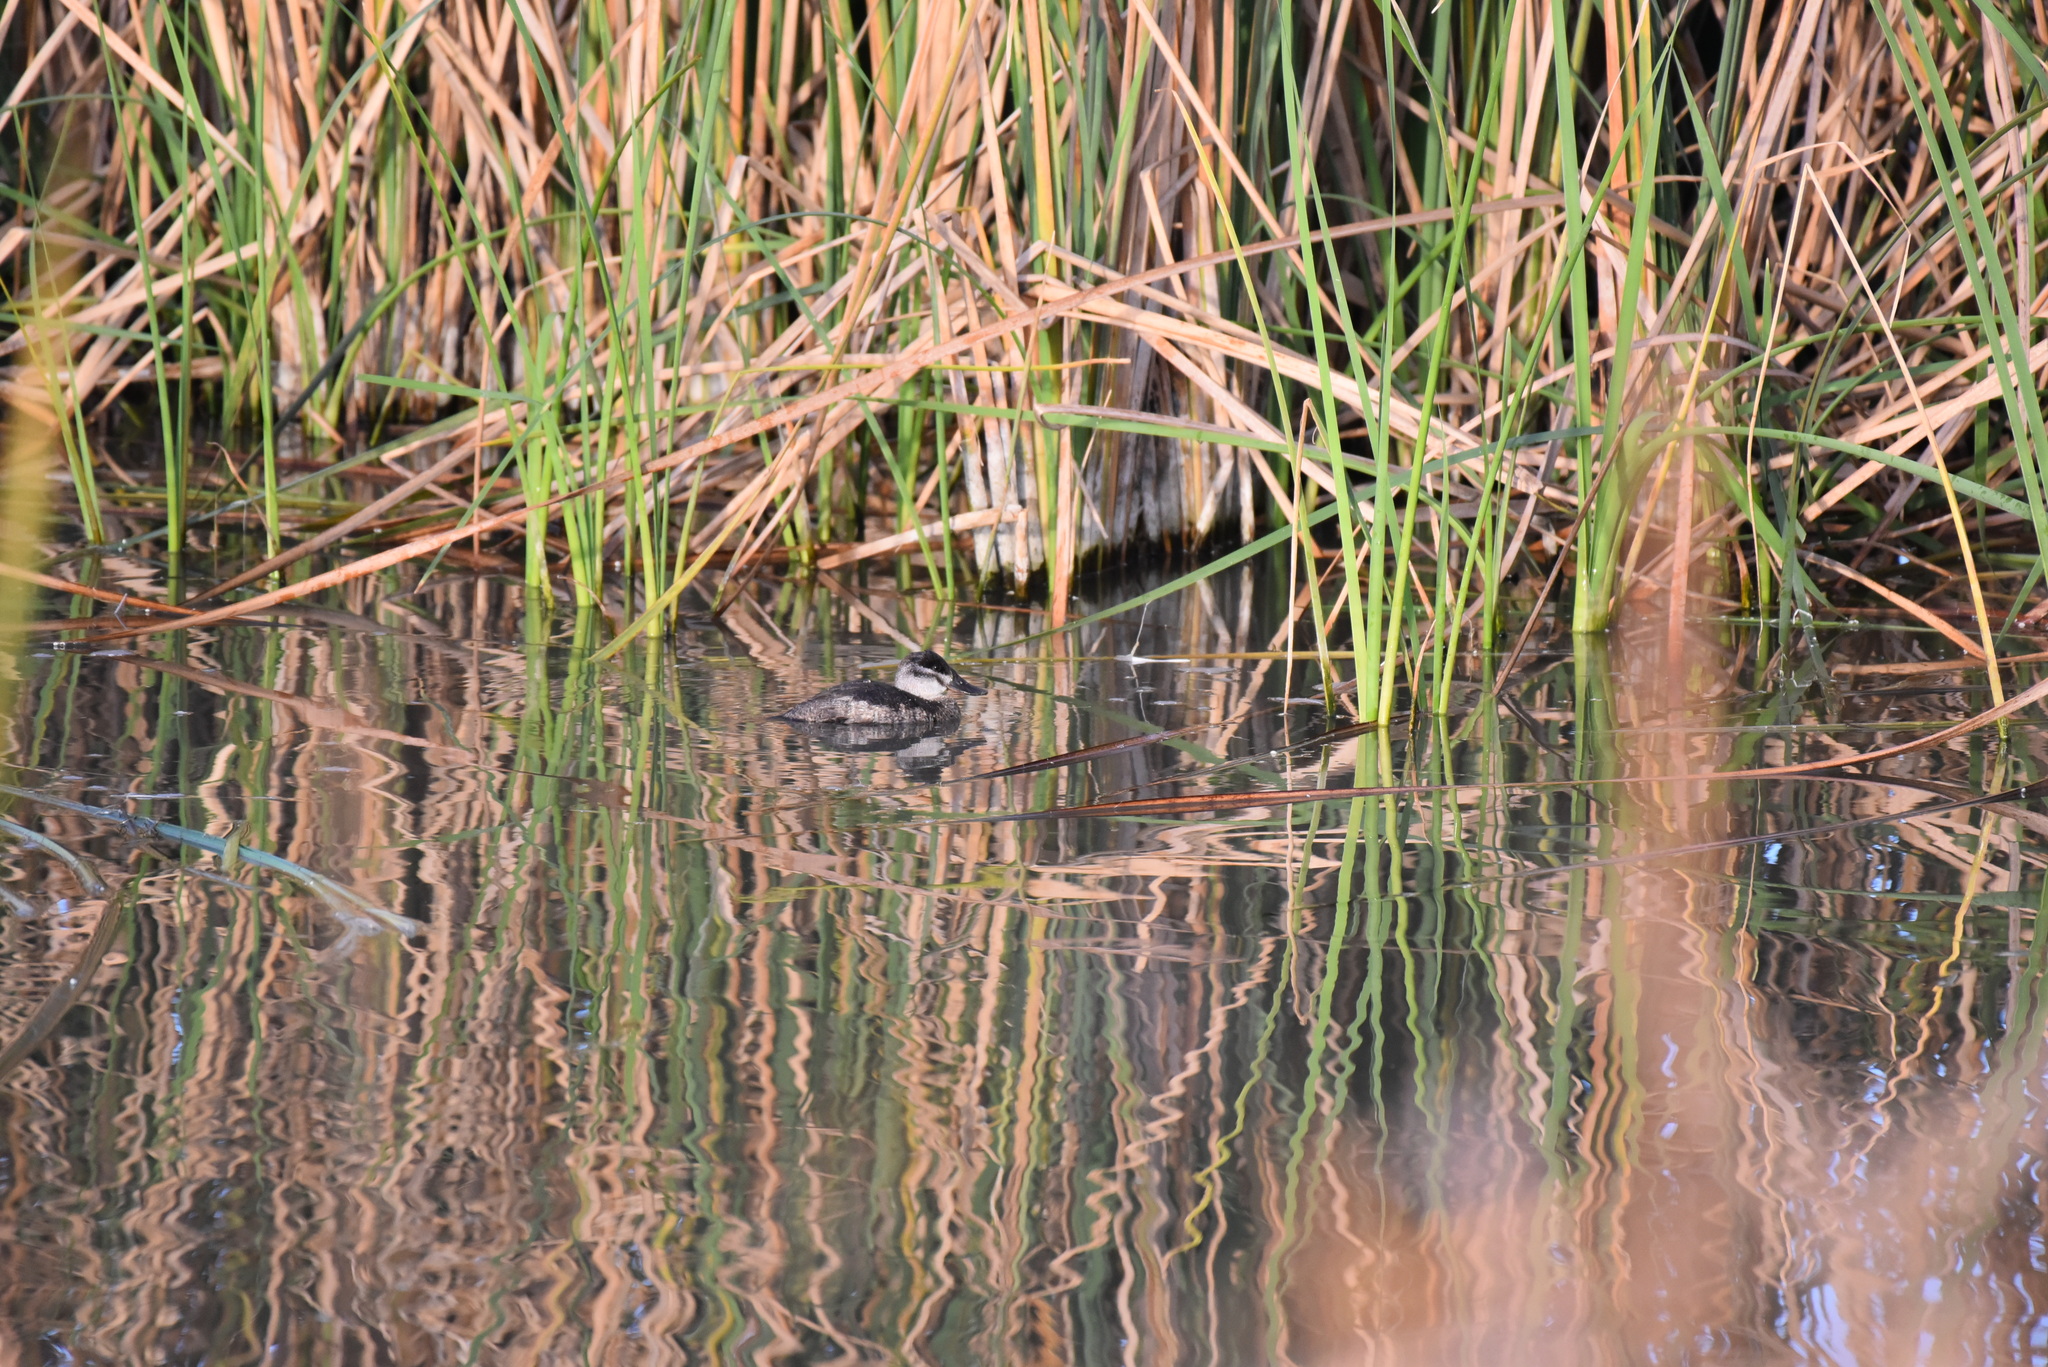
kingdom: Animalia
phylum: Chordata
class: Aves
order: Anseriformes
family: Anatidae
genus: Oxyura
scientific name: Oxyura jamaicensis
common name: Ruddy duck
